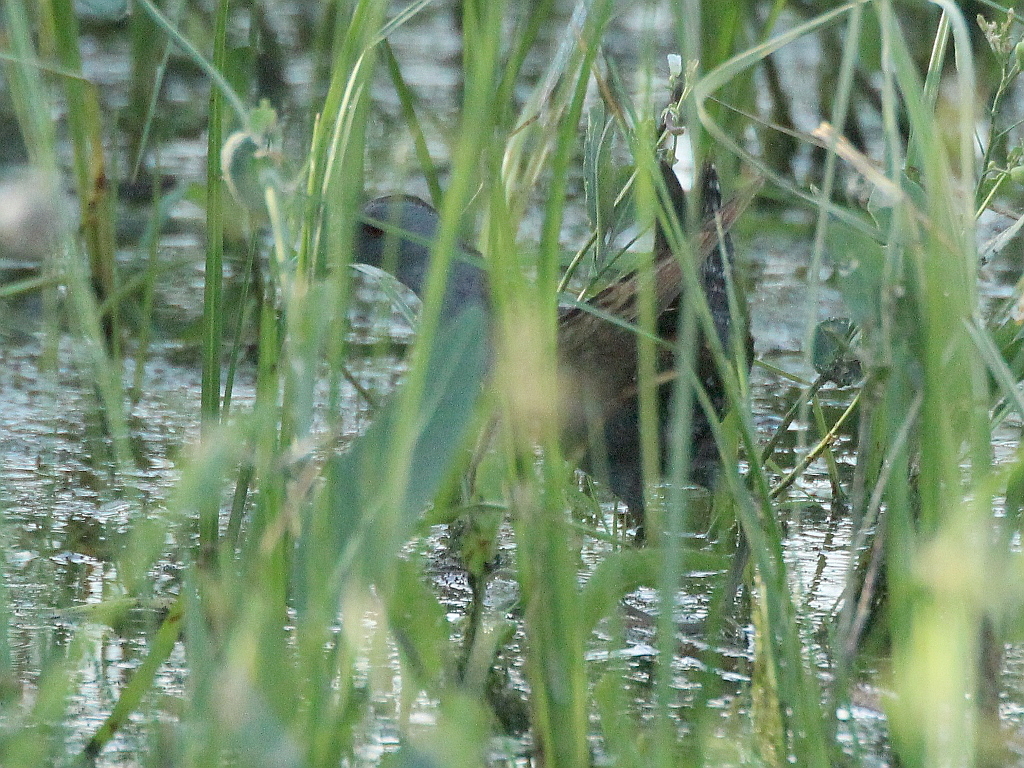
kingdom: Animalia
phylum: Chordata
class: Aves
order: Gruiformes
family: Rallidae
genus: Porzana
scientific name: Porzana parva
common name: Little crake
